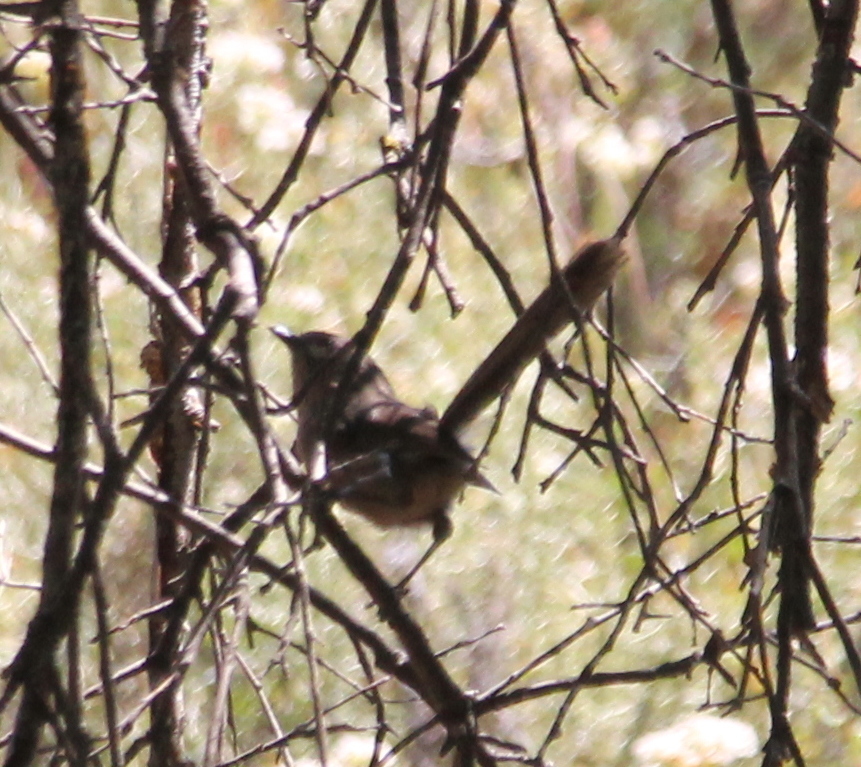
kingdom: Animalia
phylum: Chordata
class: Aves
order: Passeriformes
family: Sylviidae
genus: Chamaea
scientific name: Chamaea fasciata
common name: Wrentit
